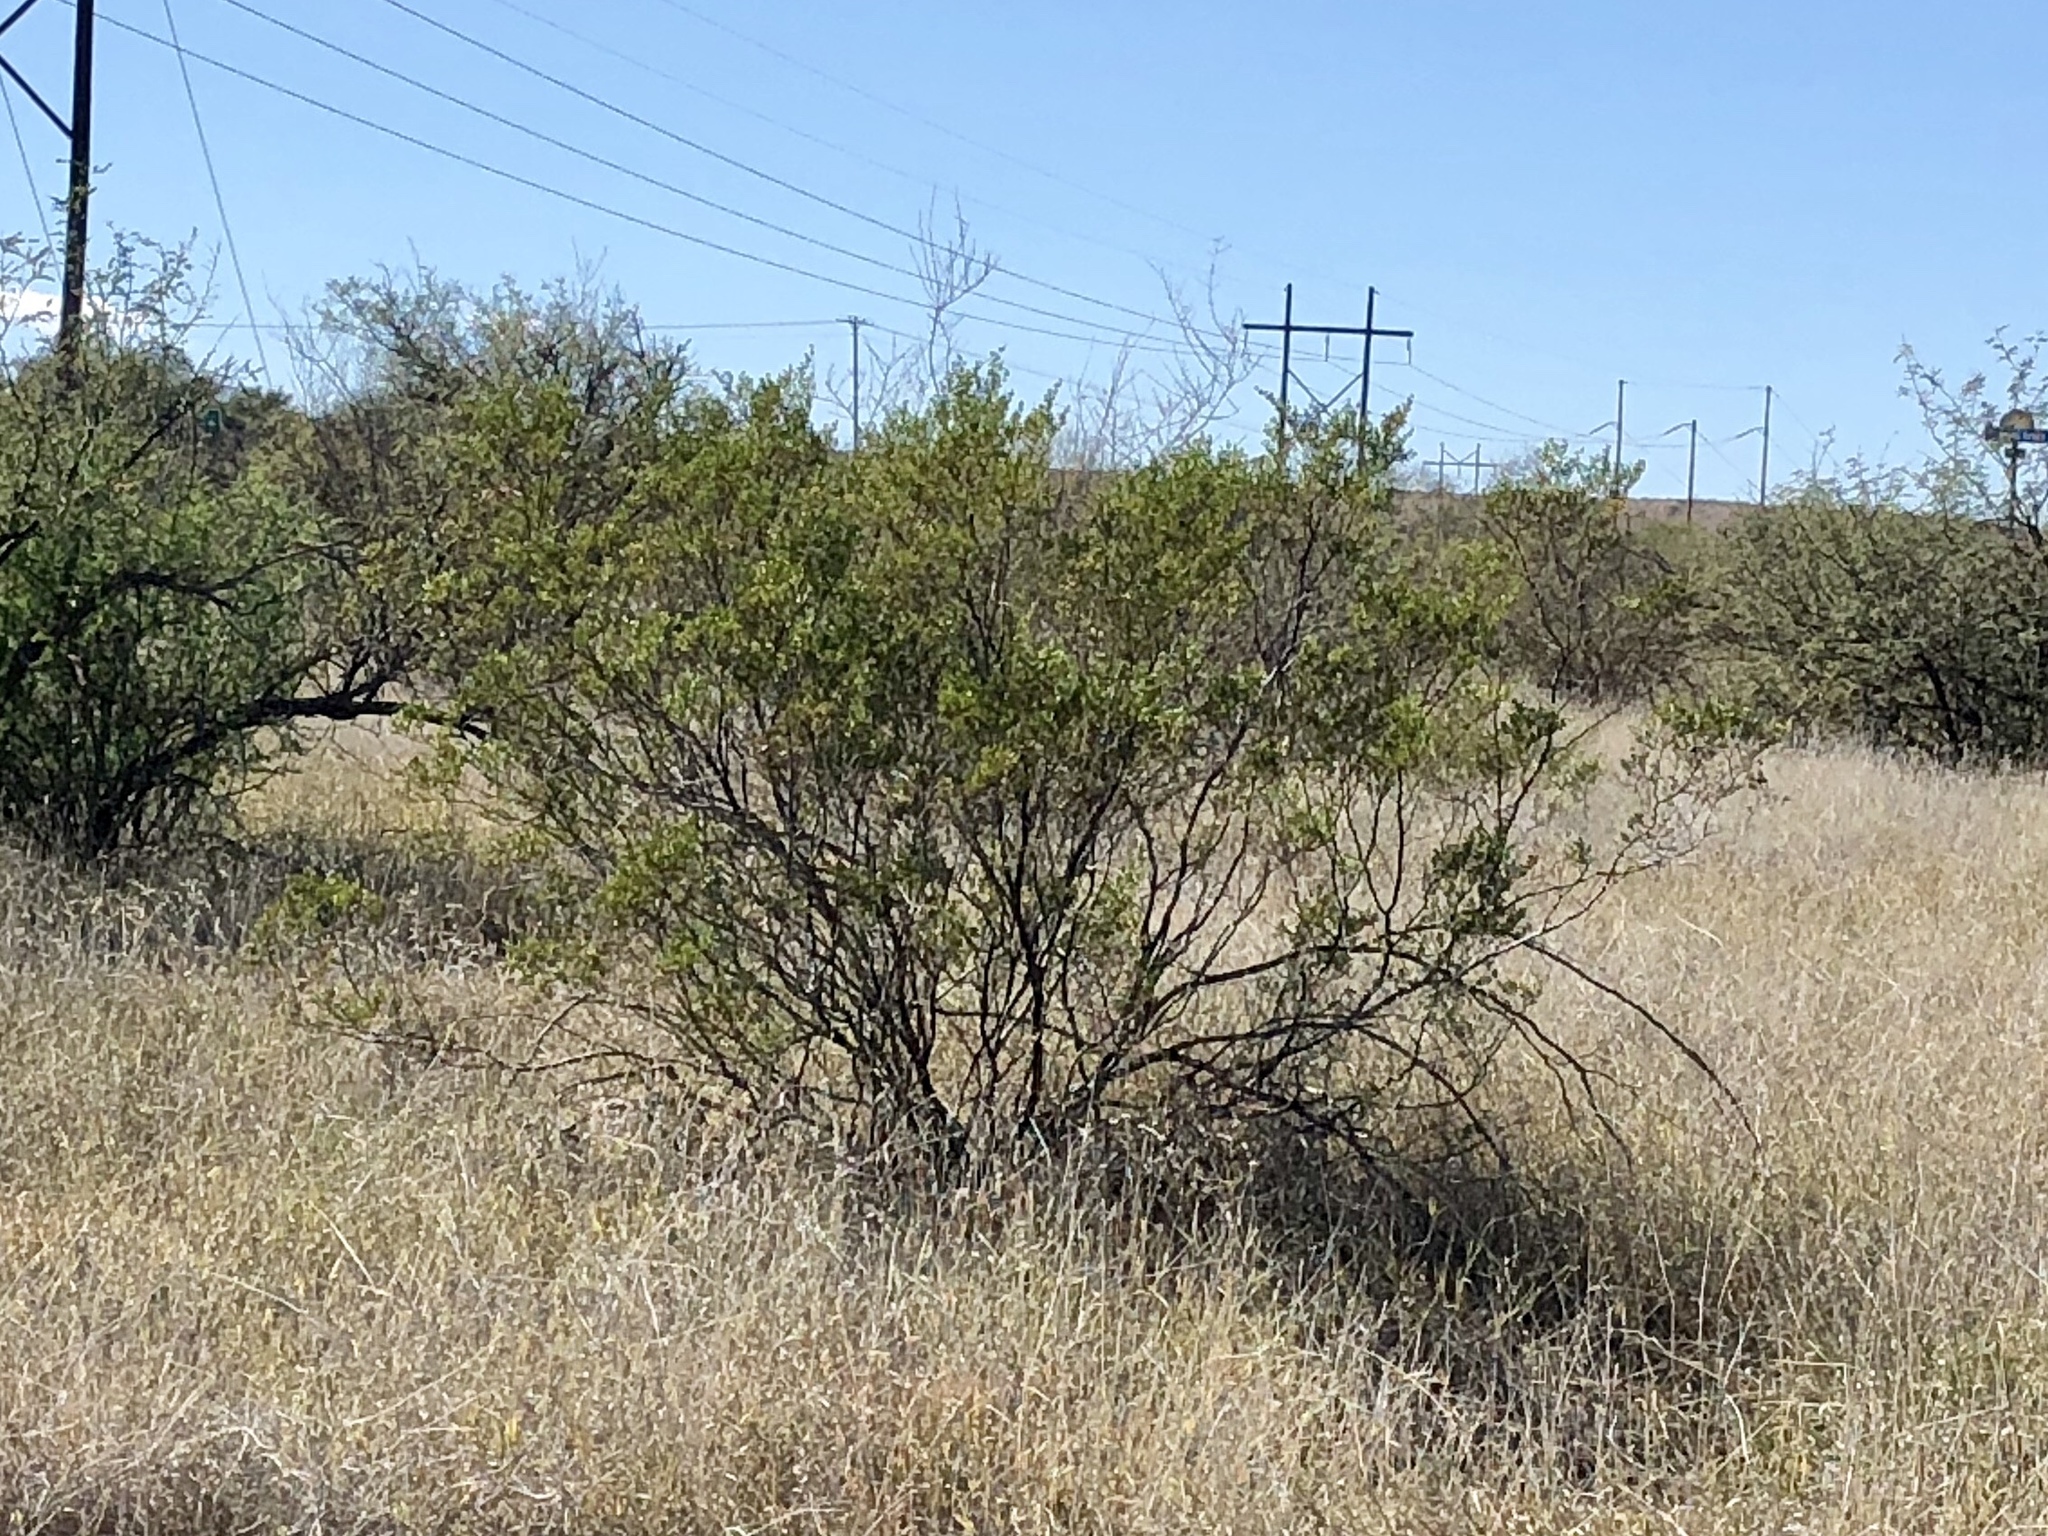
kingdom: Plantae
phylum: Tracheophyta
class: Magnoliopsida
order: Zygophyllales
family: Zygophyllaceae
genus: Larrea
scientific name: Larrea tridentata
